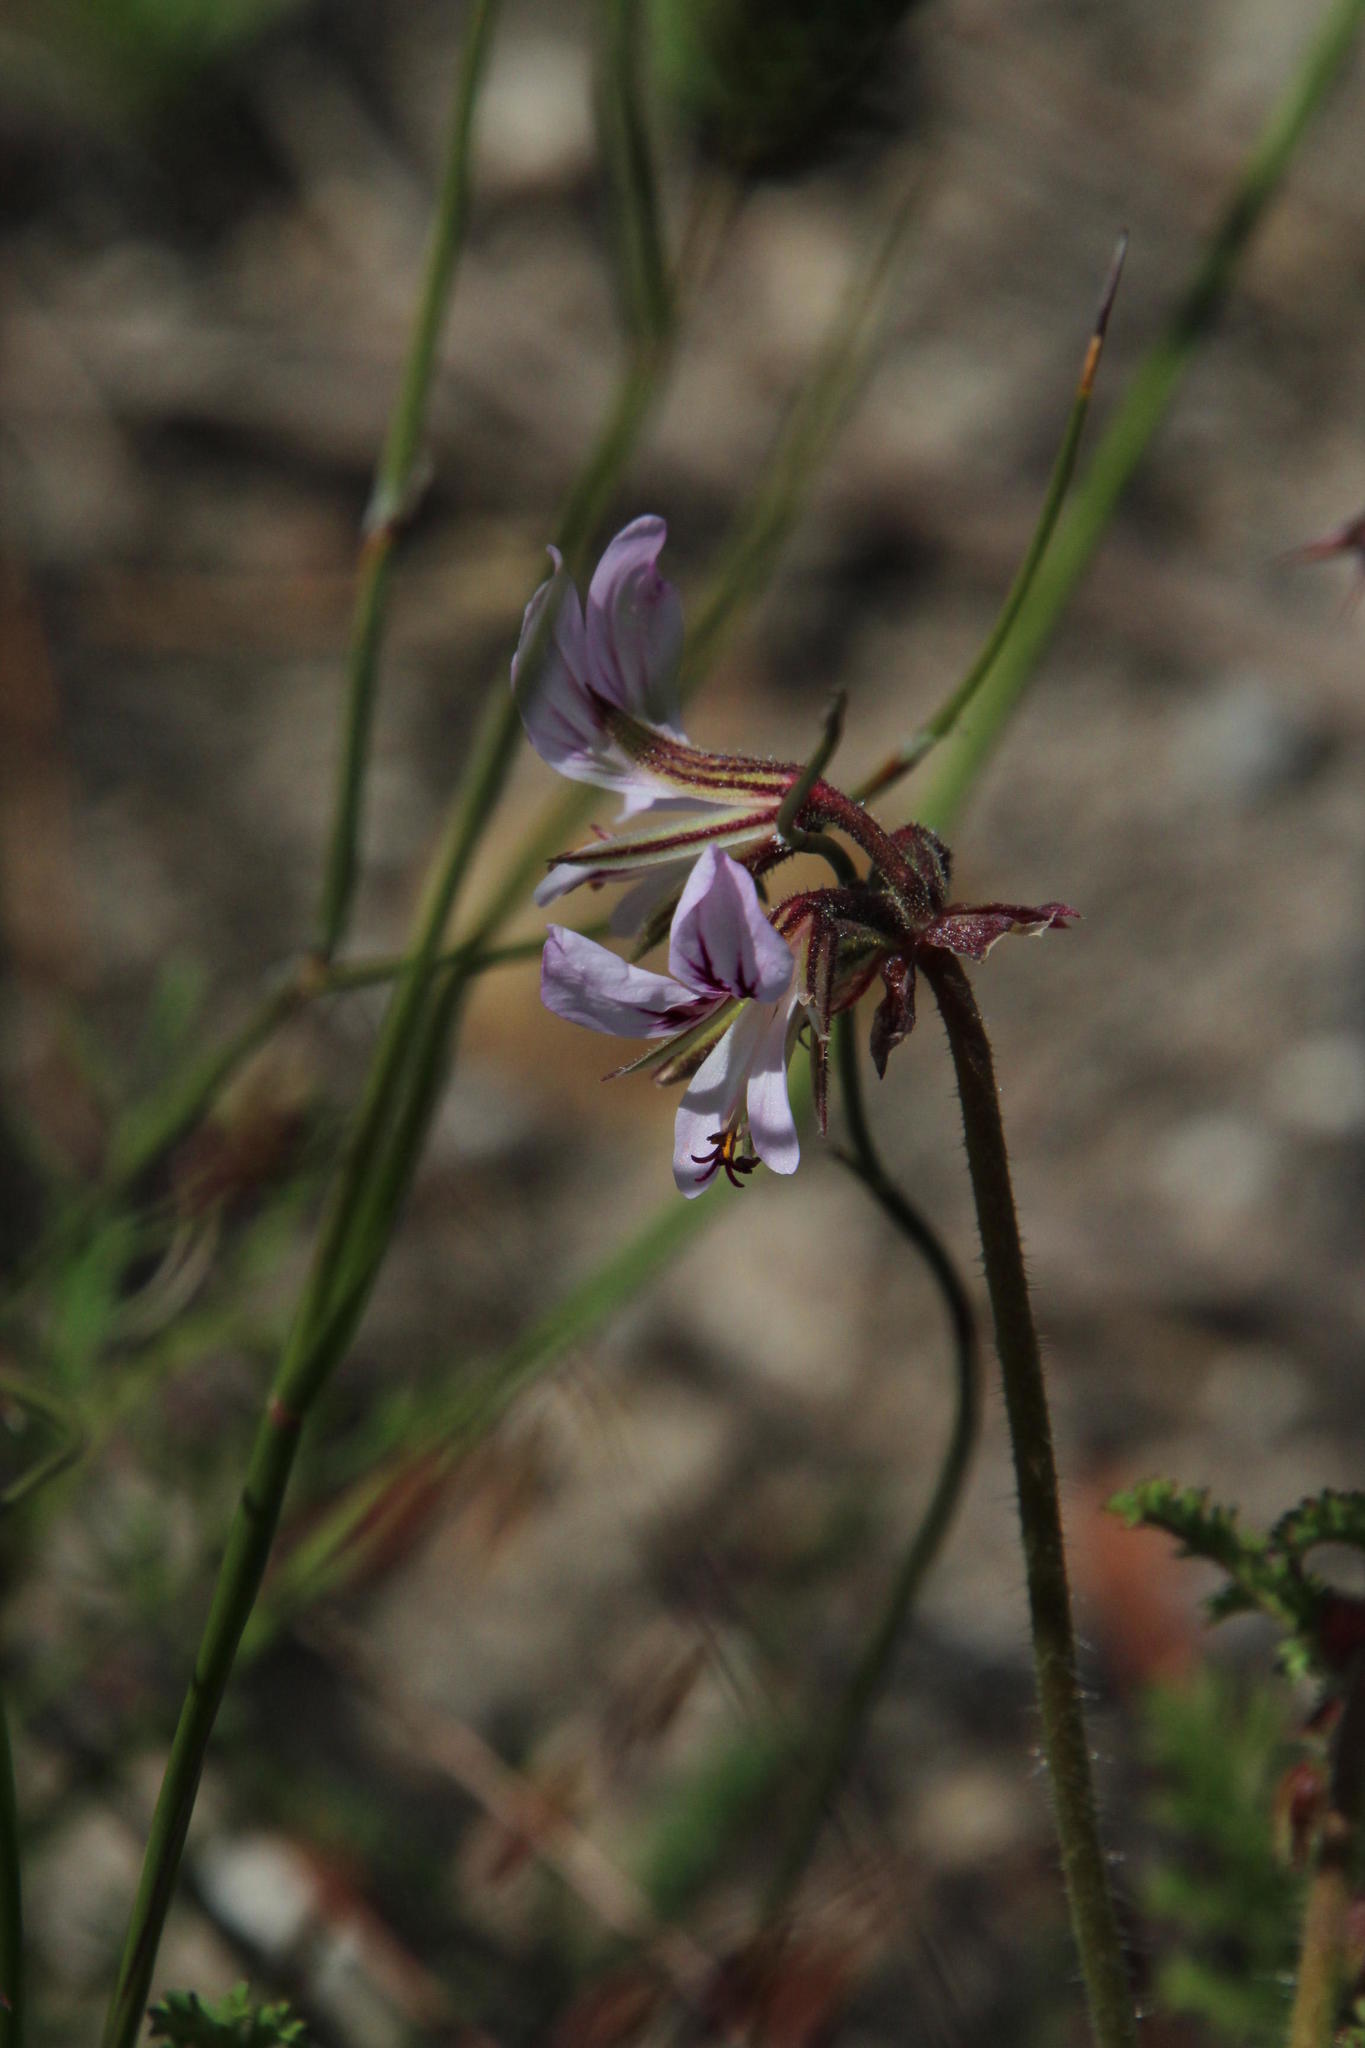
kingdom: Plantae
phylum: Tracheophyta
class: Magnoliopsida
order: Geraniales
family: Geraniaceae
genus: Pelargonium
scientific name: Pelargonium myrrhifolium
